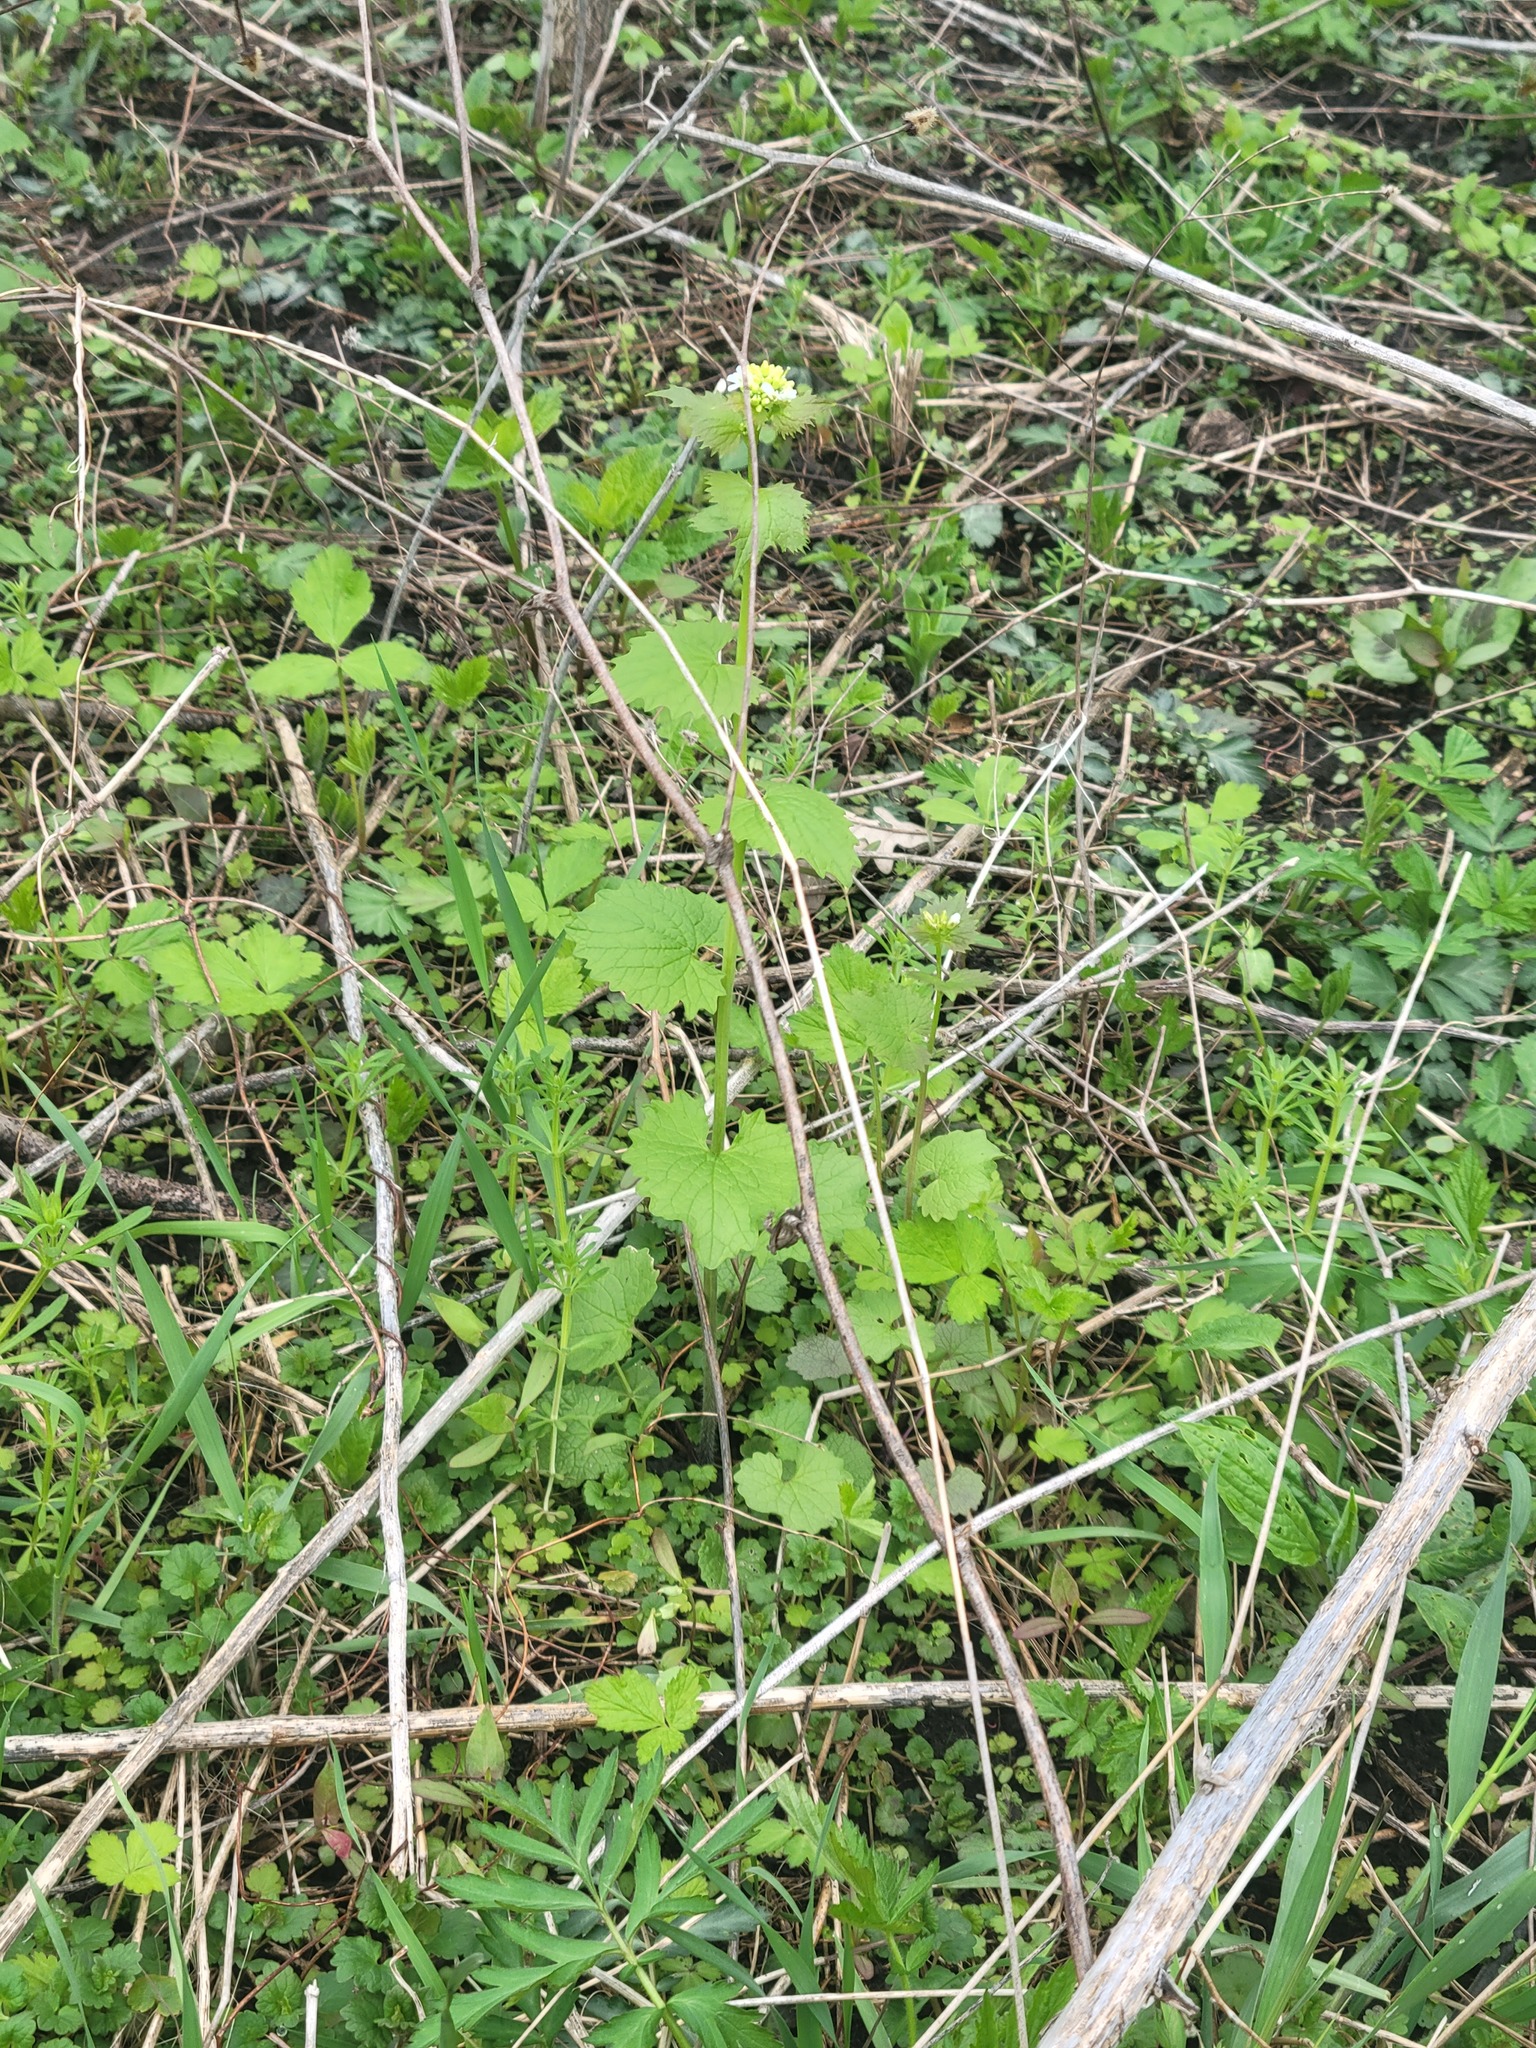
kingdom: Plantae
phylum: Tracheophyta
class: Magnoliopsida
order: Brassicales
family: Brassicaceae
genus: Alliaria
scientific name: Alliaria petiolata
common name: Garlic mustard
